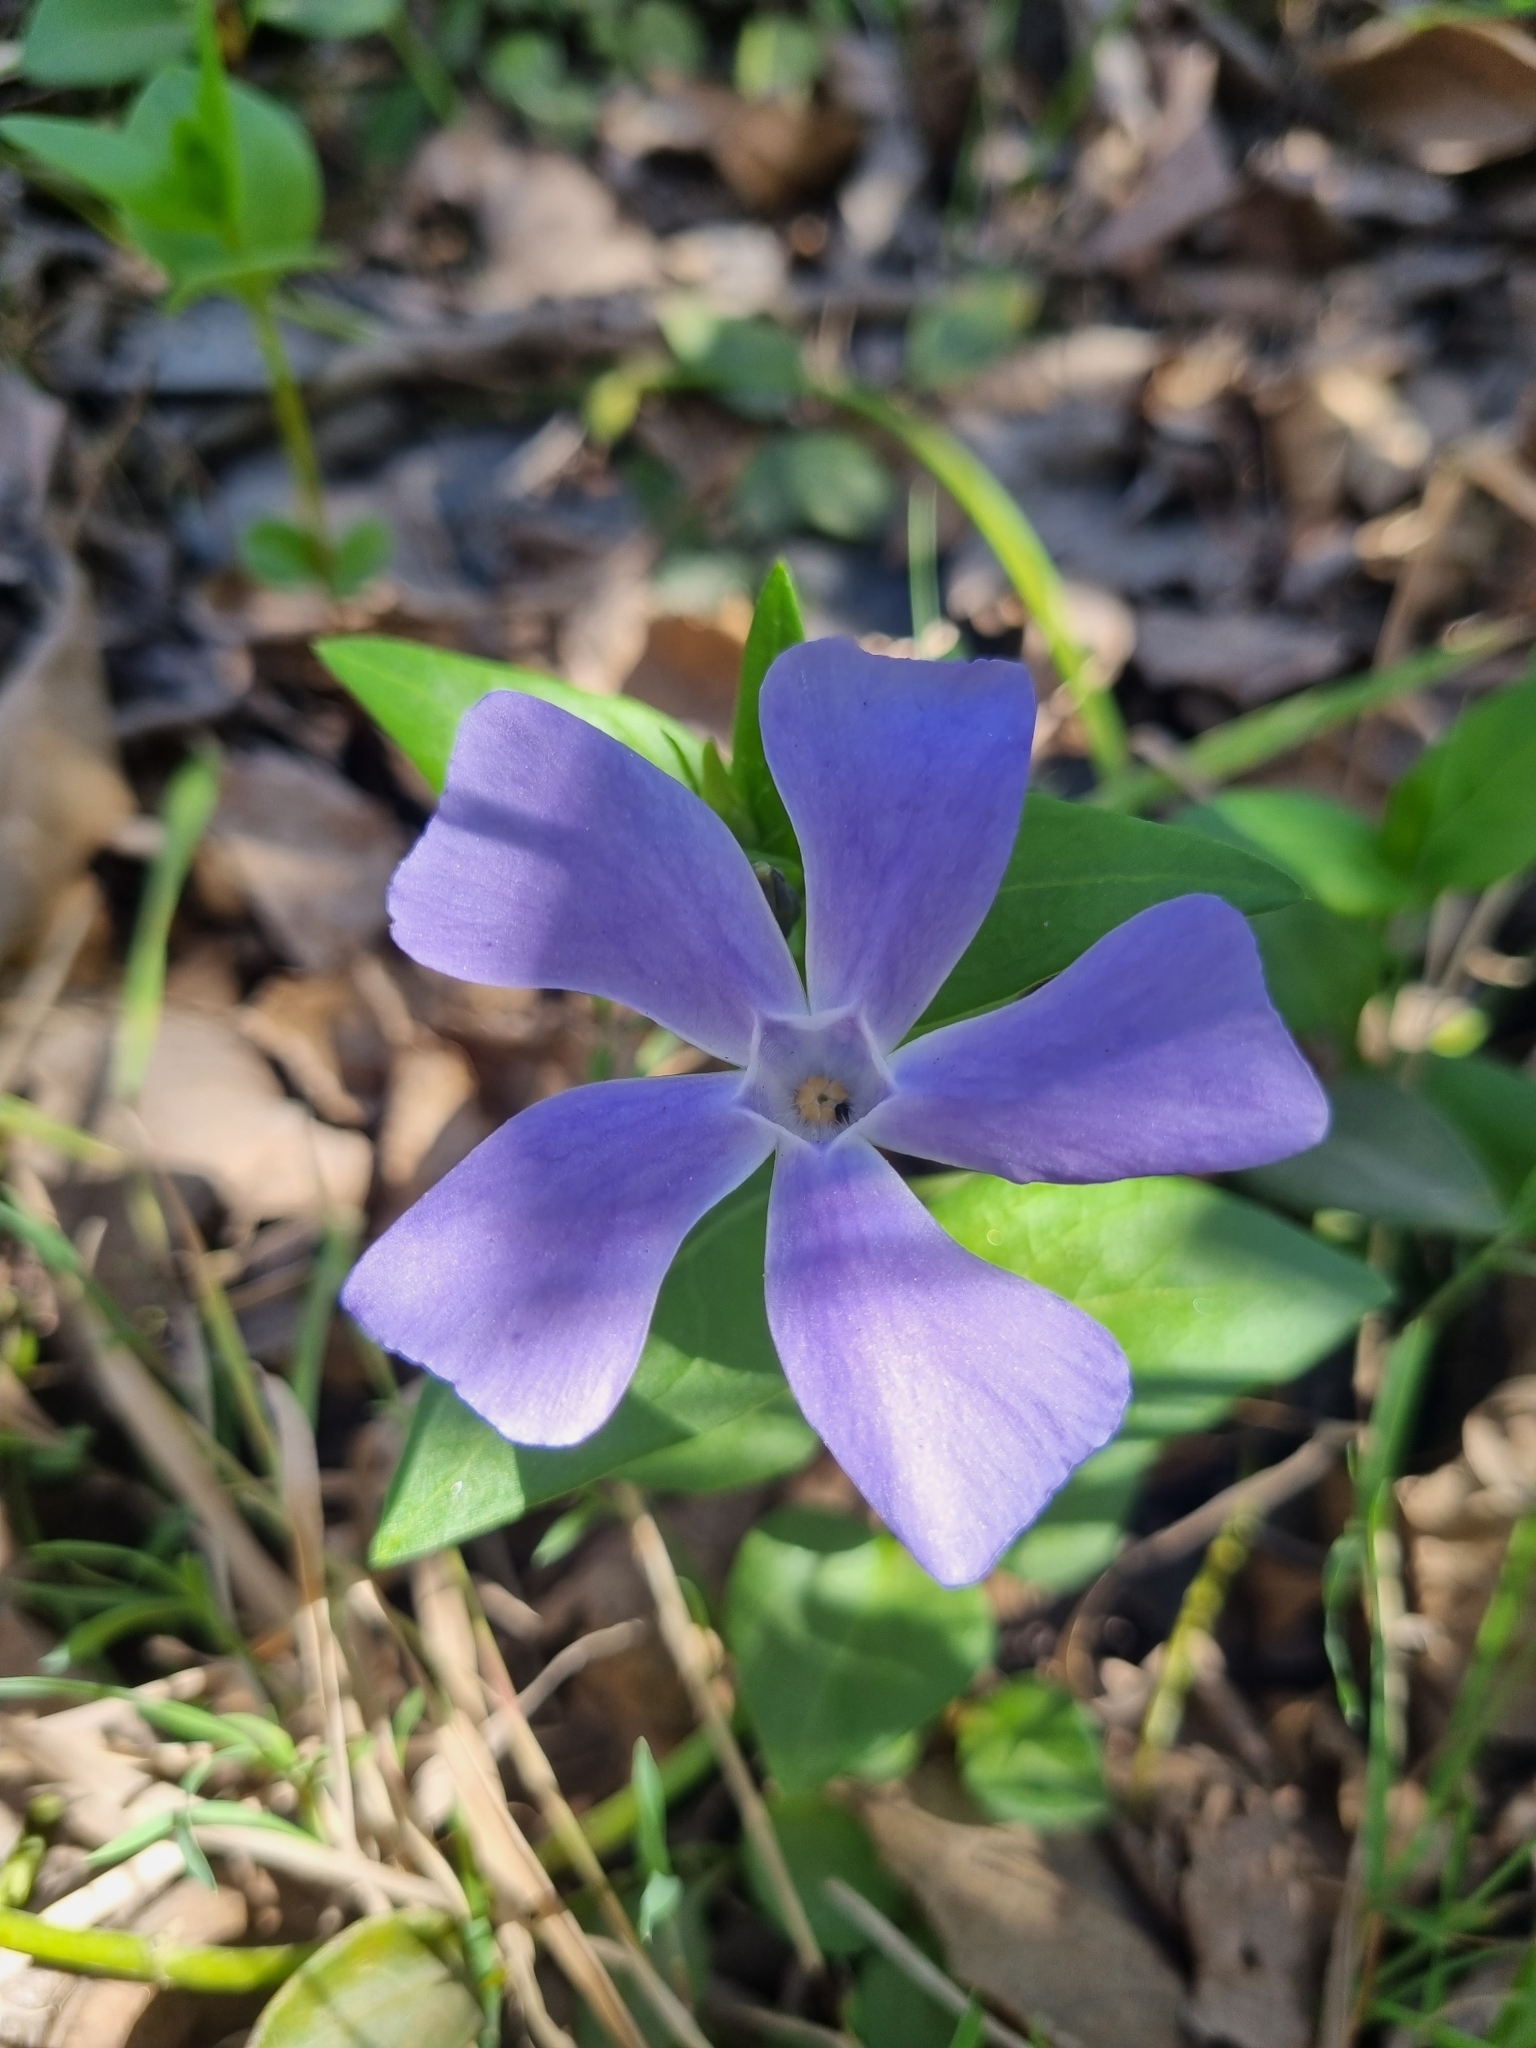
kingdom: Plantae
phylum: Tracheophyta
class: Magnoliopsida
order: Gentianales
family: Apocynaceae
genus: Vinca
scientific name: Vinca major
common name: Greater periwinkle
